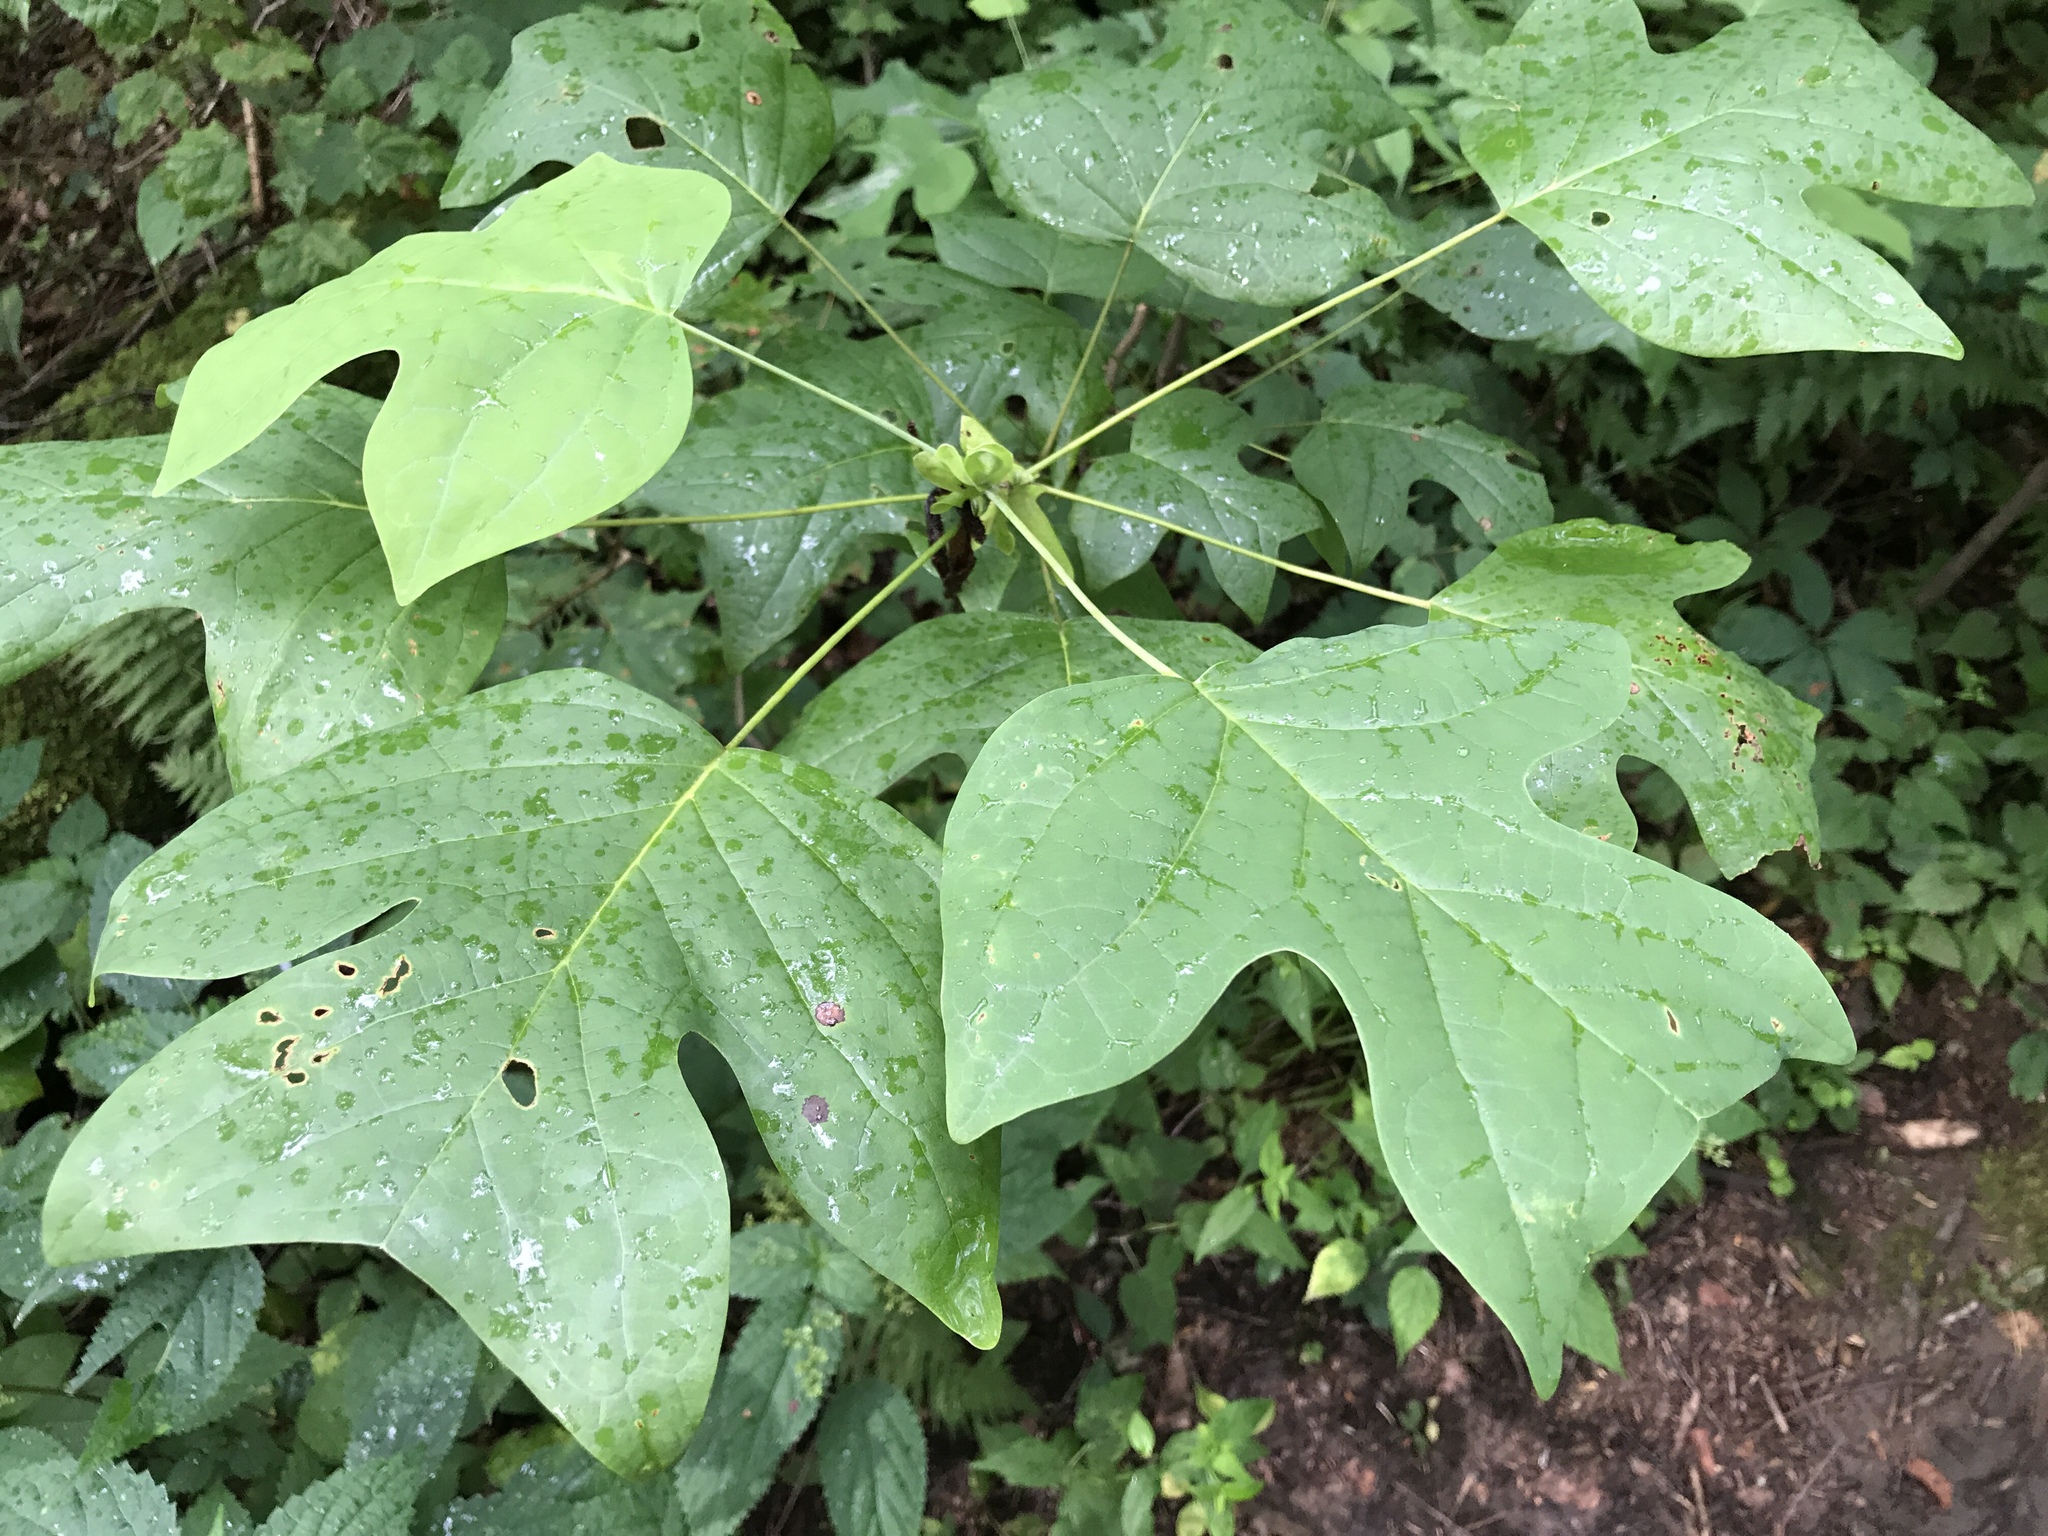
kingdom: Plantae
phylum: Tracheophyta
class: Magnoliopsida
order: Magnoliales
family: Magnoliaceae
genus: Liriodendron
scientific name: Liriodendron tulipifera
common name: Tulip tree
